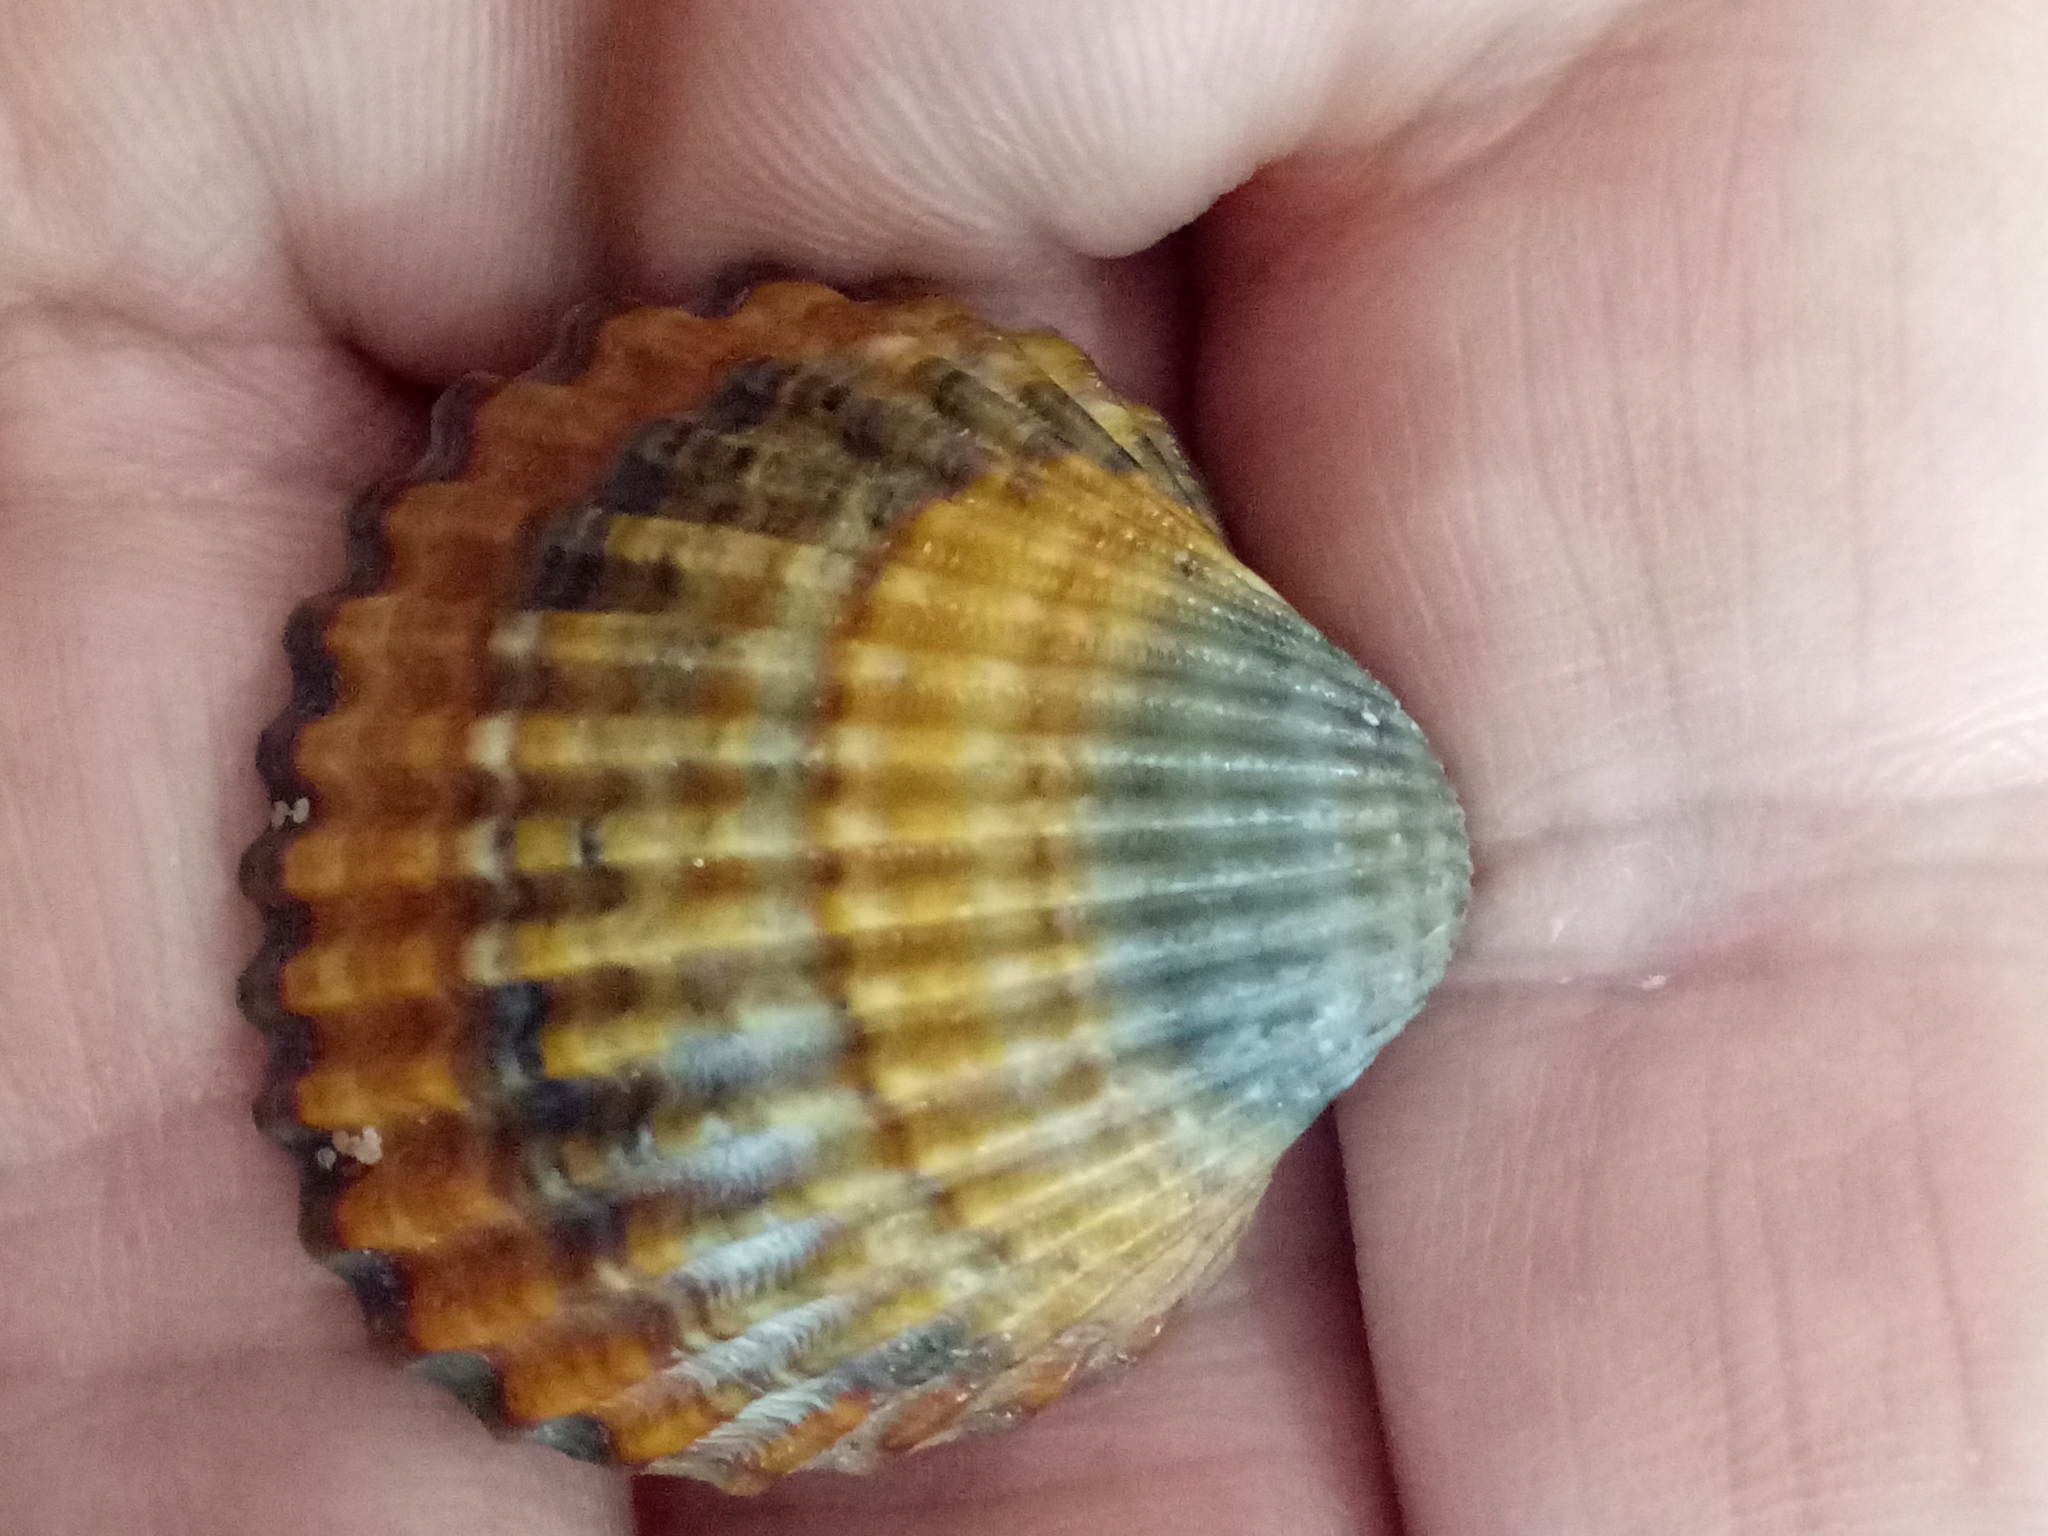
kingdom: Animalia
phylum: Mollusca
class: Bivalvia
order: Cardiida
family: Cardiidae
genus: Acanthocardia
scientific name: Acanthocardia tuberculata
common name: Rough cockle
